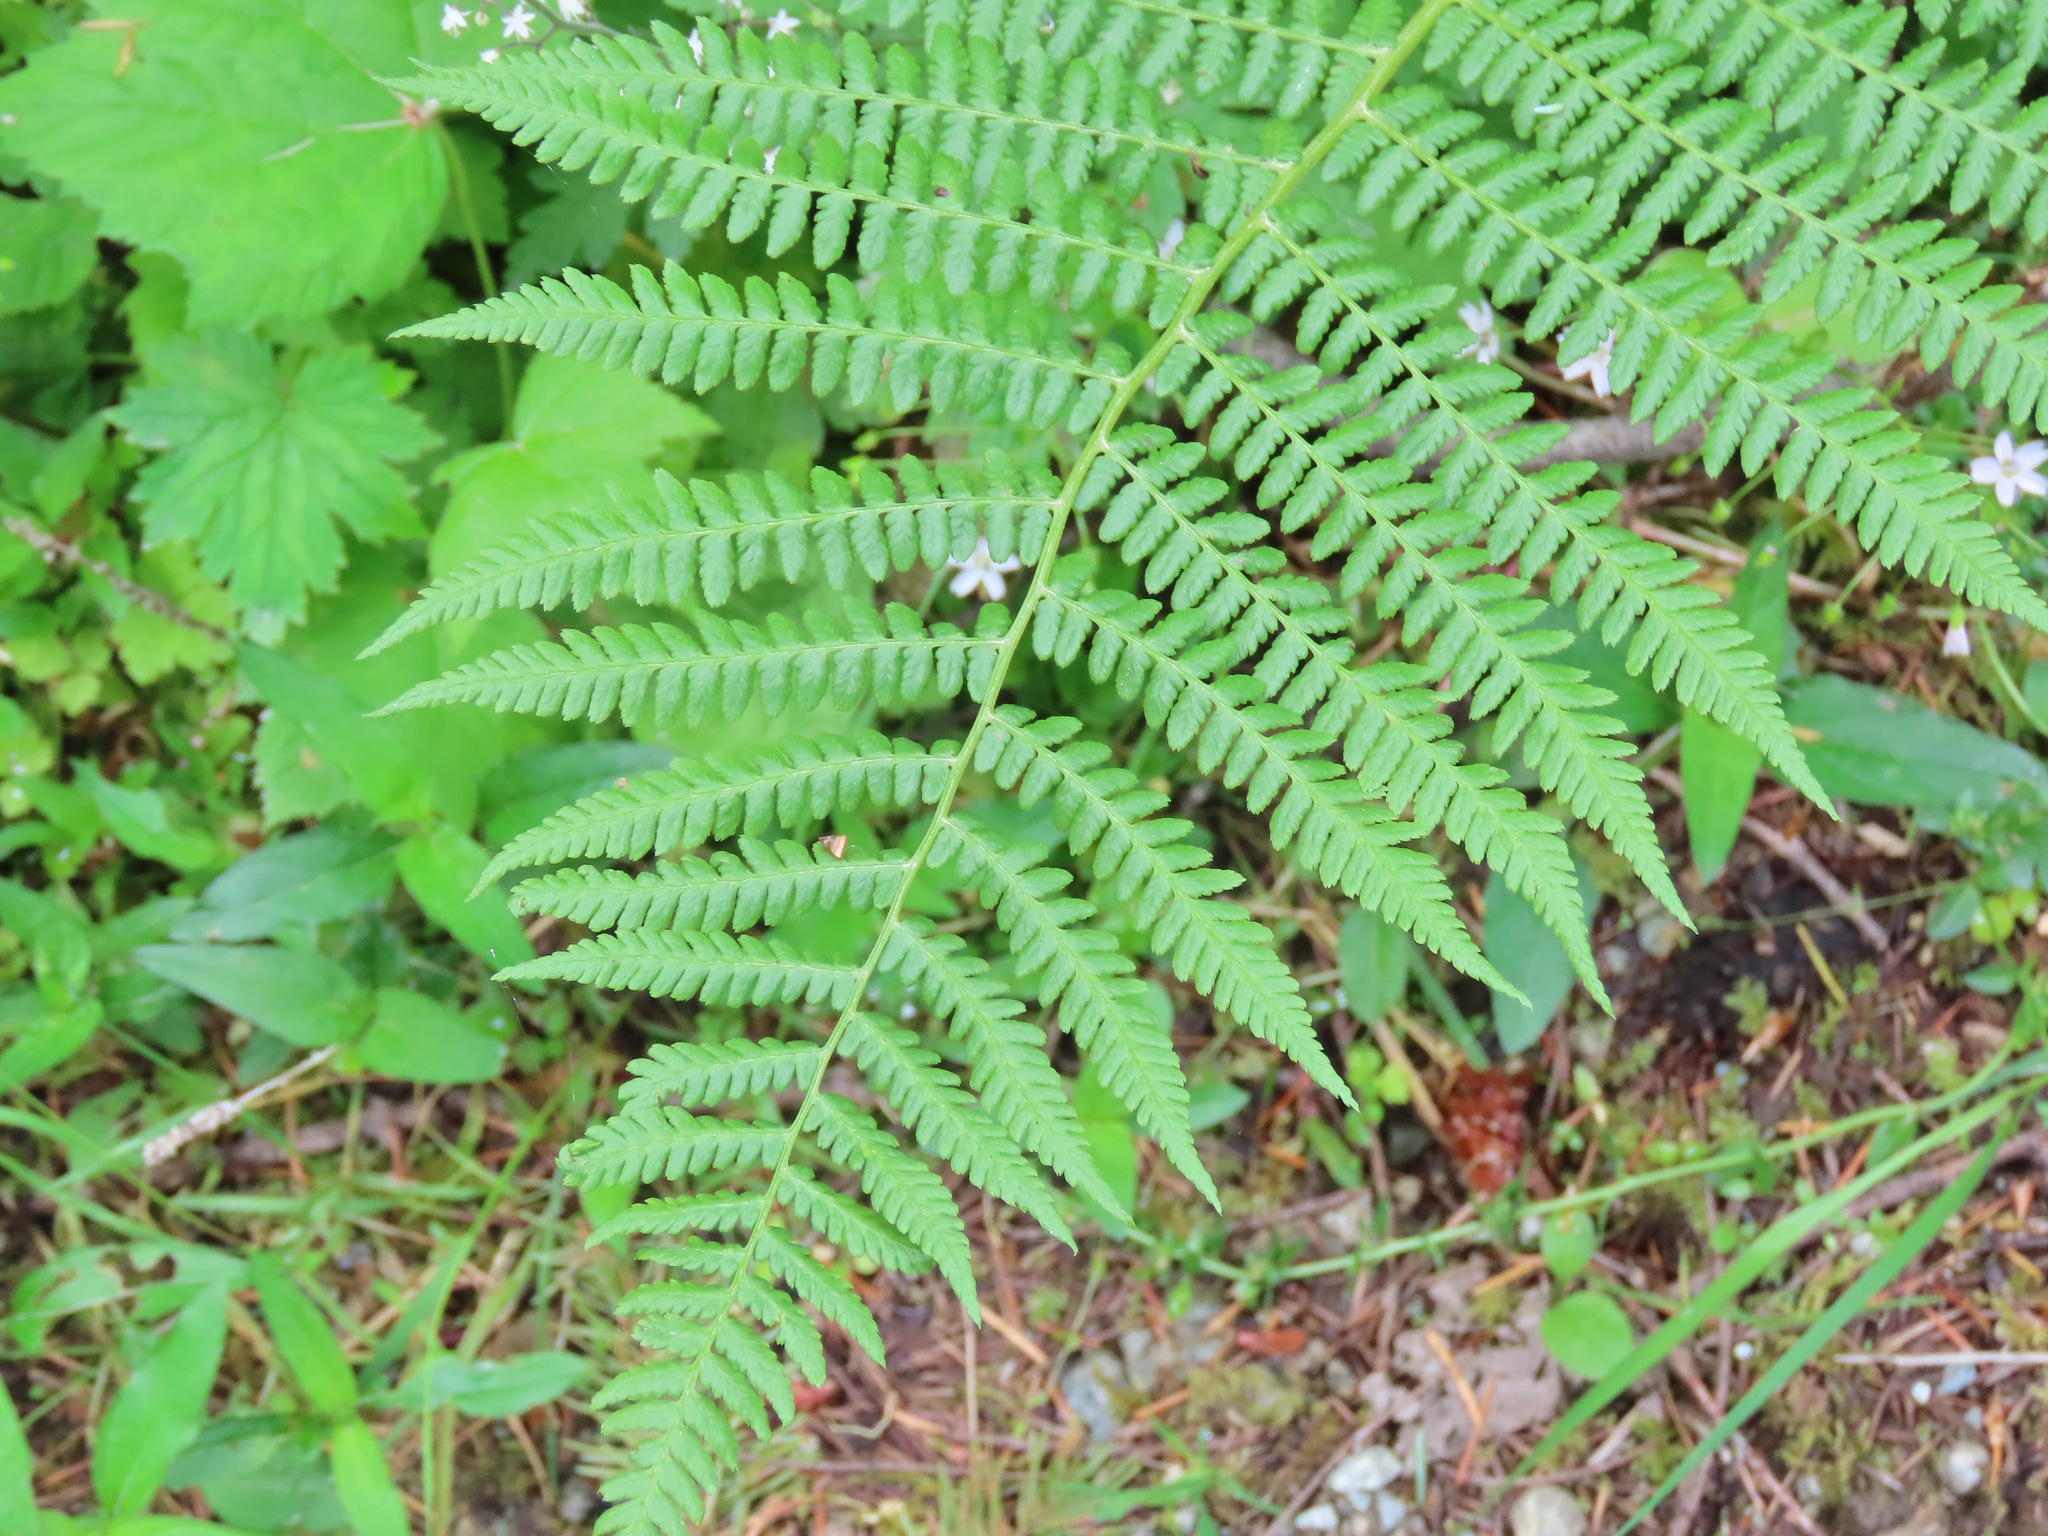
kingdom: Plantae
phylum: Tracheophyta
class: Polypodiopsida
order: Polypodiales
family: Athyriaceae
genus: Athyrium
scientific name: Athyrium filix-femina
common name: Lady fern
